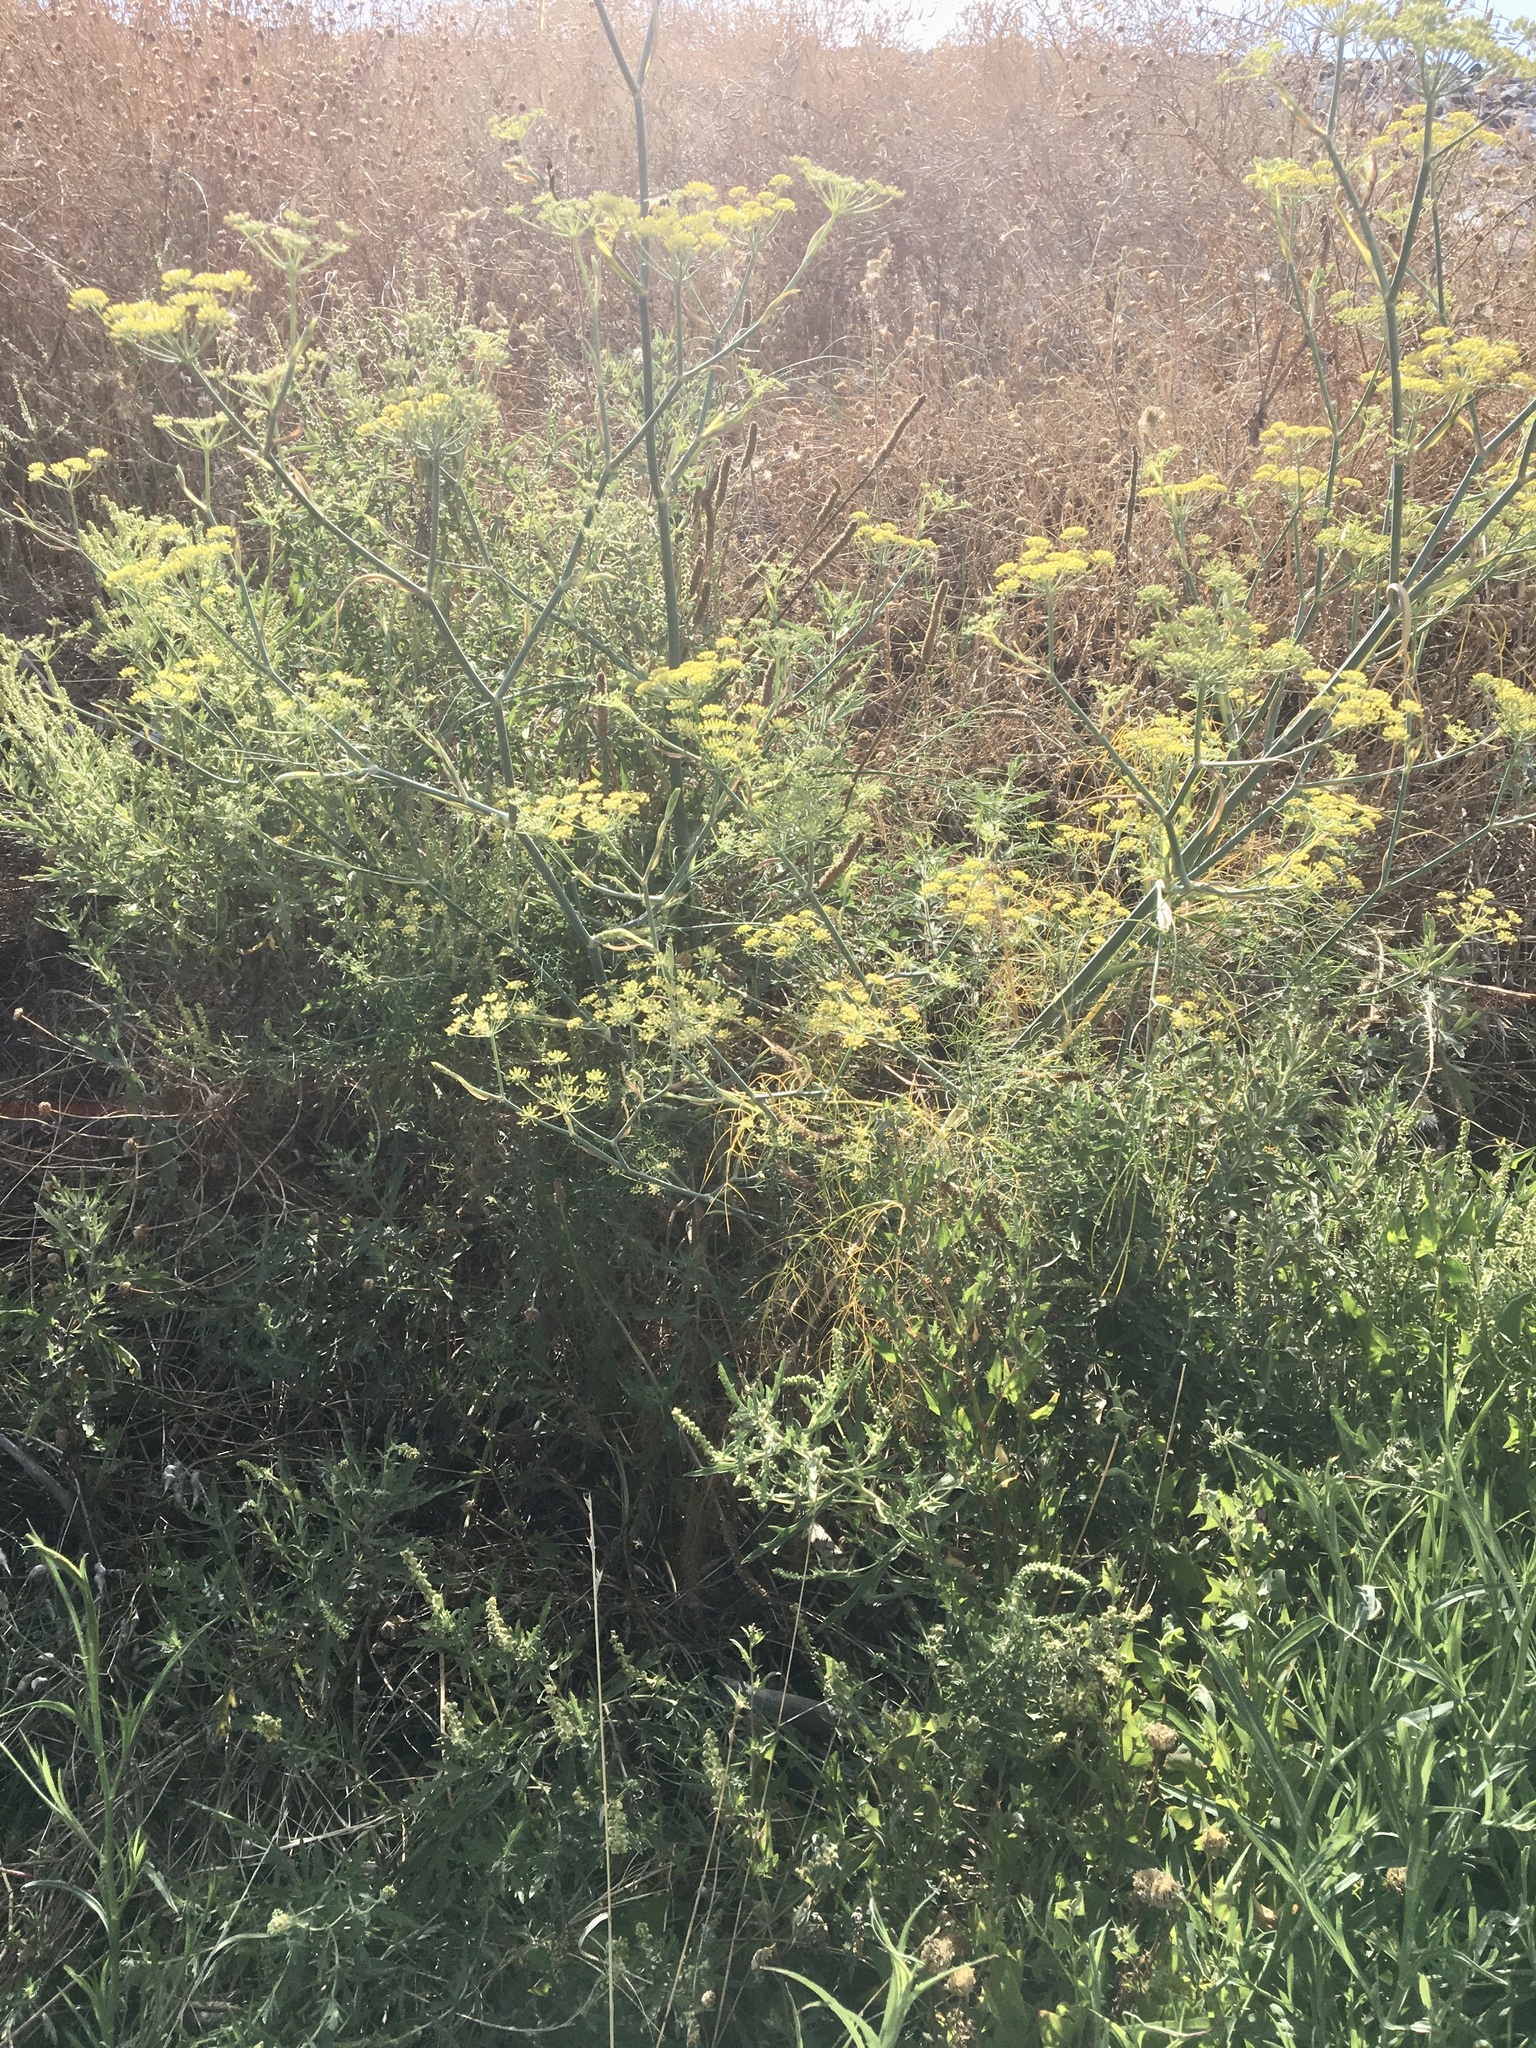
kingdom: Plantae
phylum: Tracheophyta
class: Magnoliopsida
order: Apiales
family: Apiaceae
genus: Foeniculum
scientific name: Foeniculum vulgare
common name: Fennel
